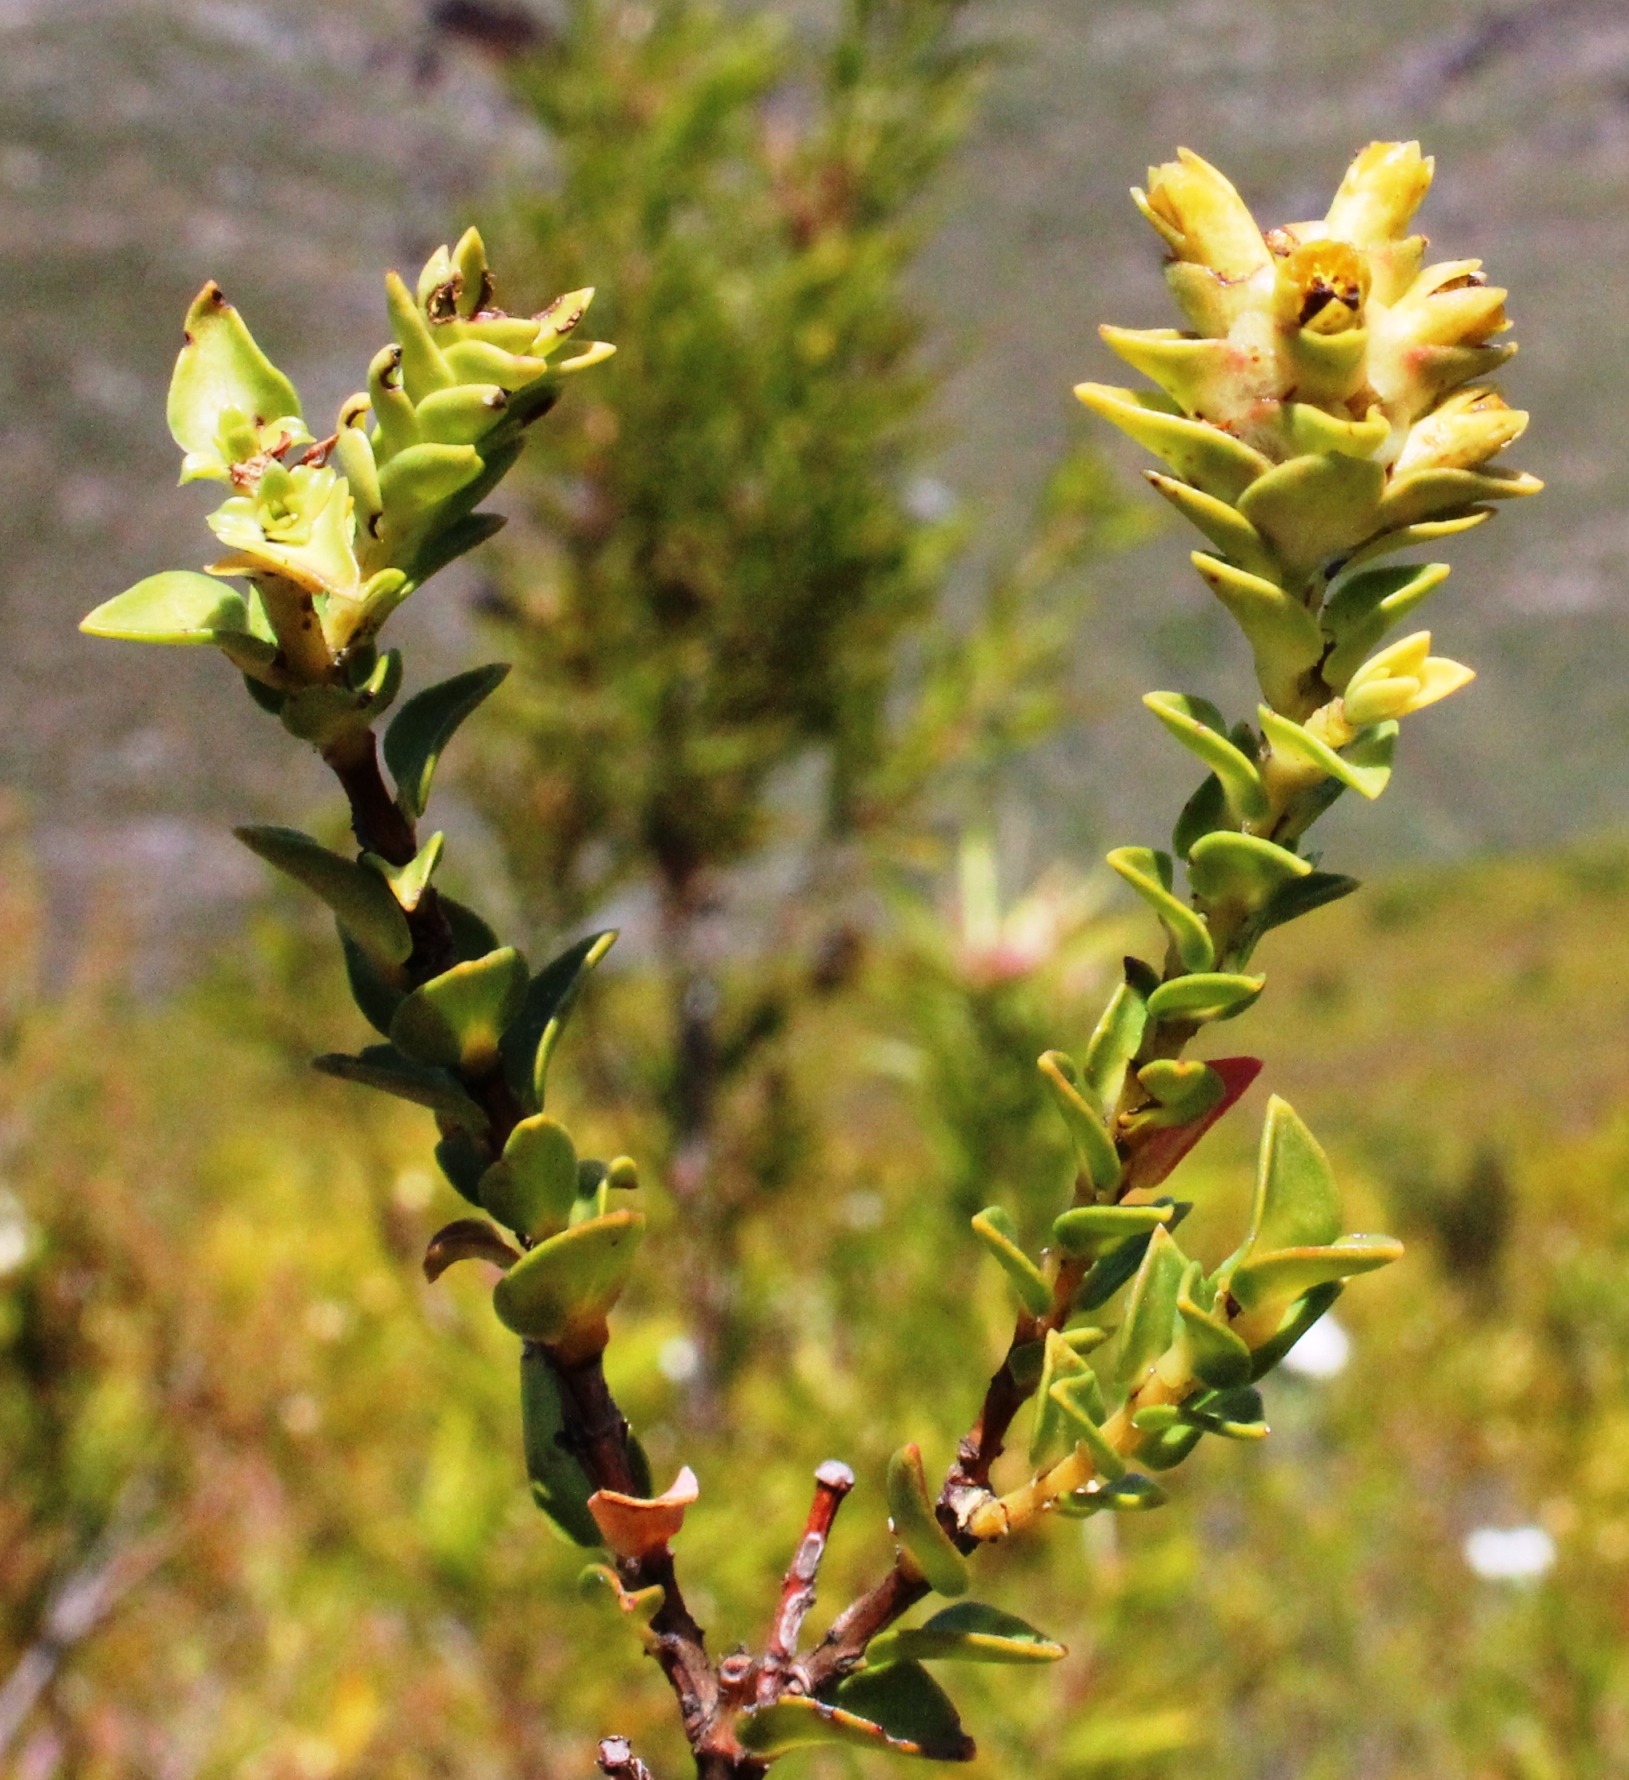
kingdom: Plantae
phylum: Tracheophyta
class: Magnoliopsida
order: Myrtales
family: Penaeaceae
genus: Penaea
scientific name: Penaea mucronata
